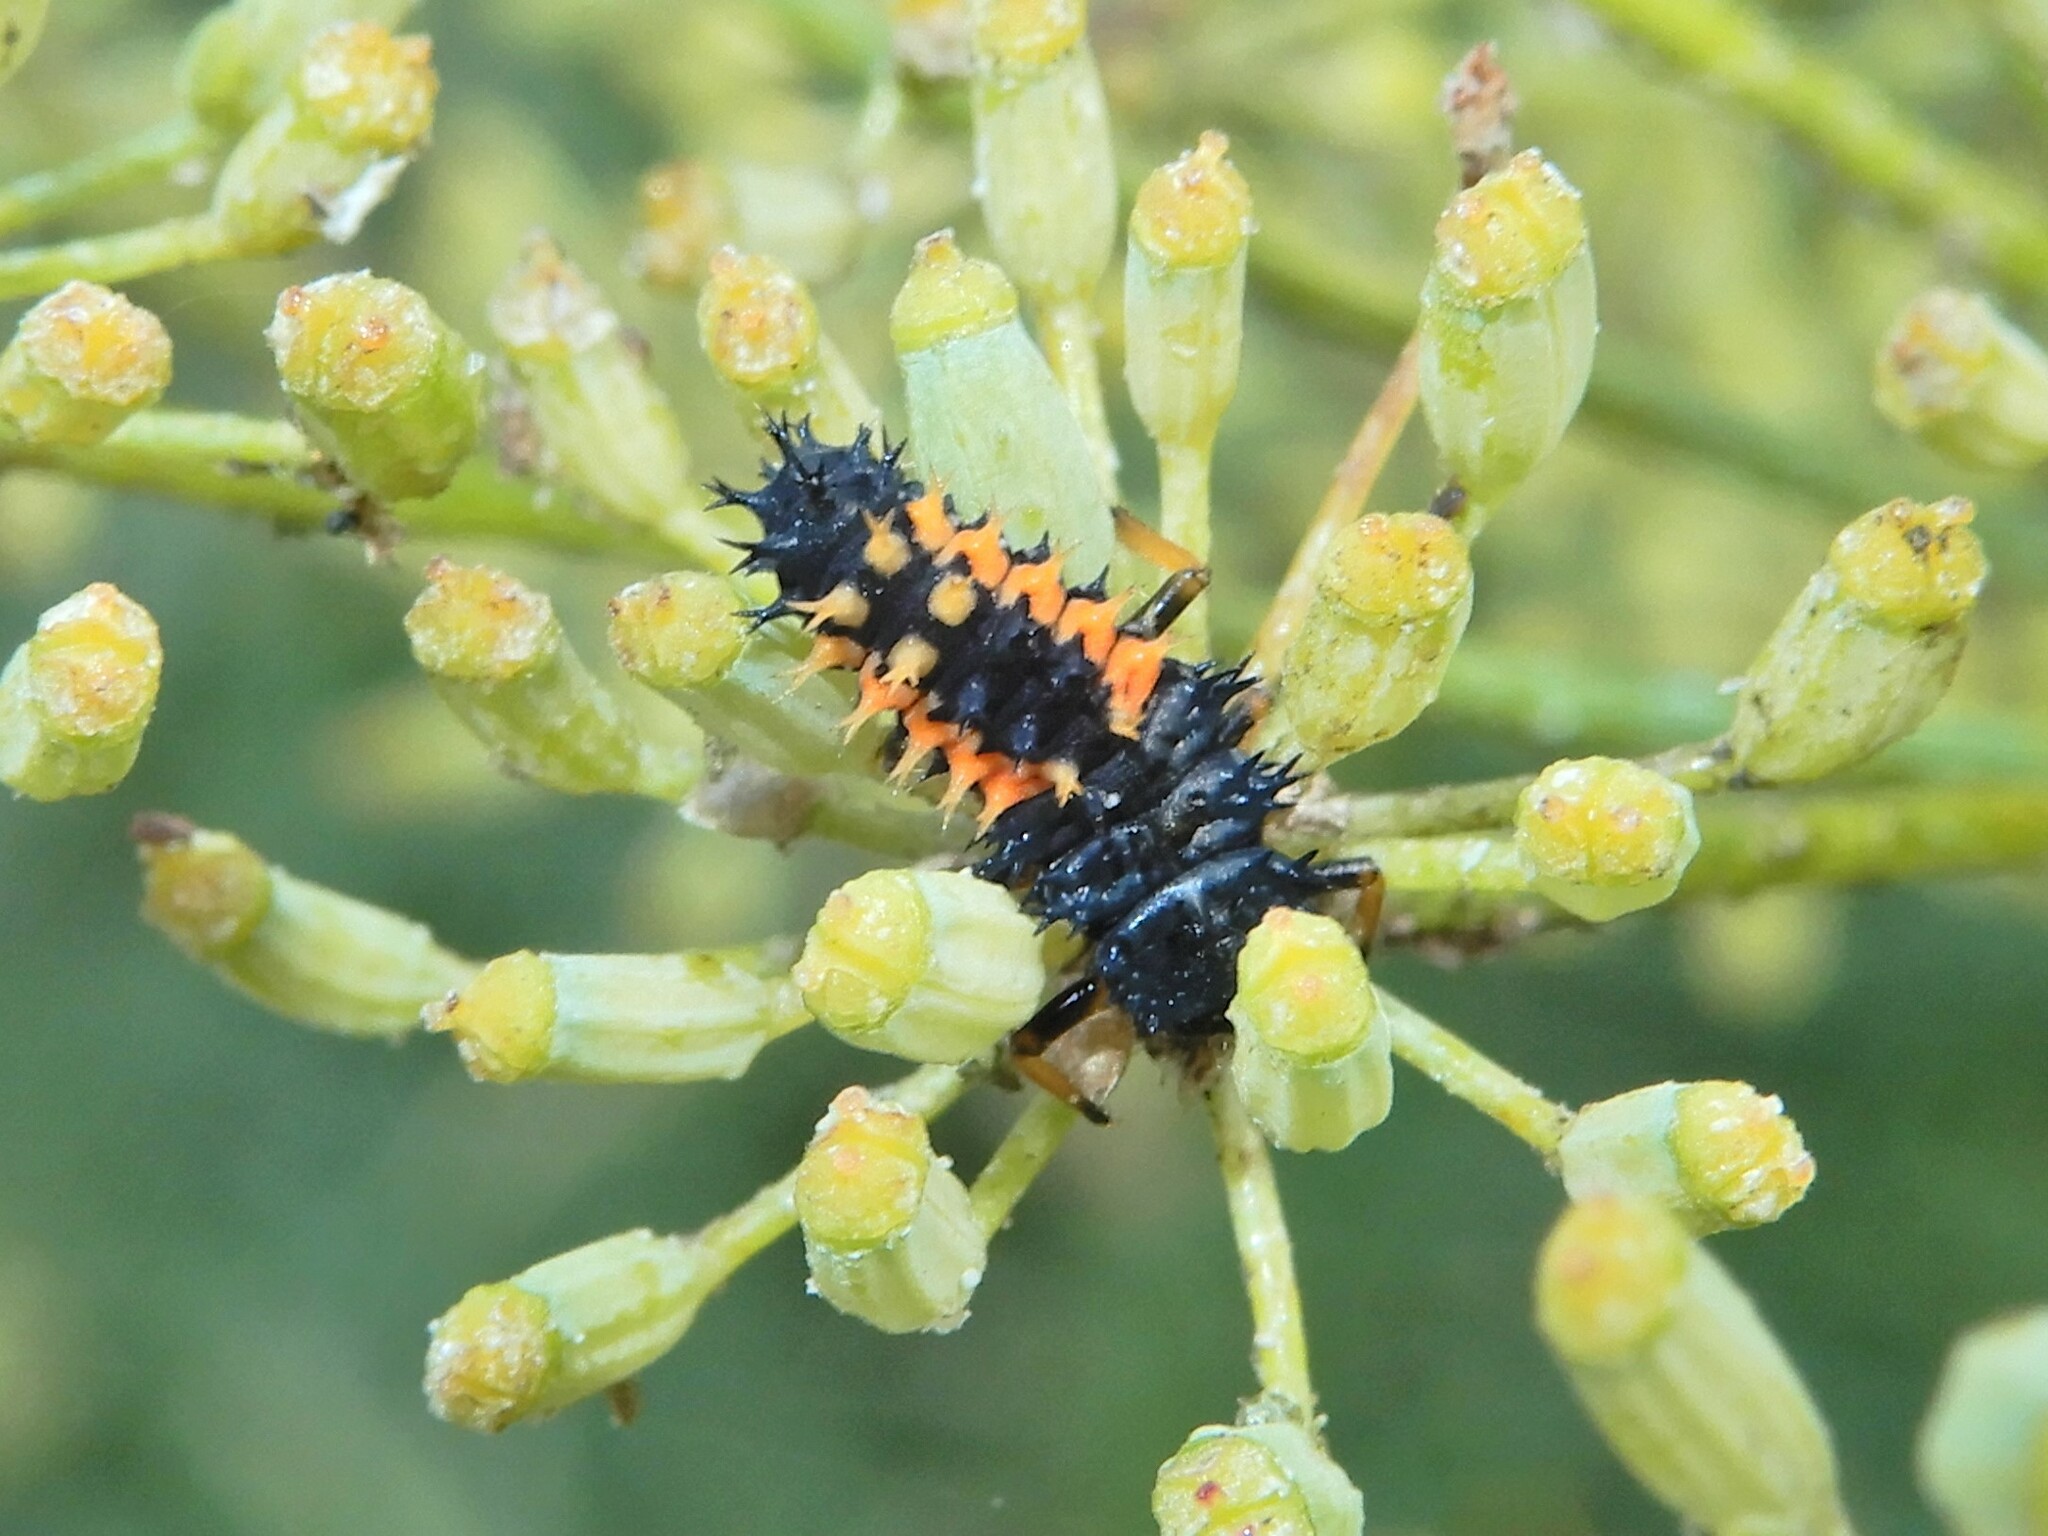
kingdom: Animalia
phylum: Arthropoda
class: Insecta
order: Coleoptera
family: Coccinellidae
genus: Harmonia
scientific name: Harmonia axyridis
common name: Harlequin ladybird
